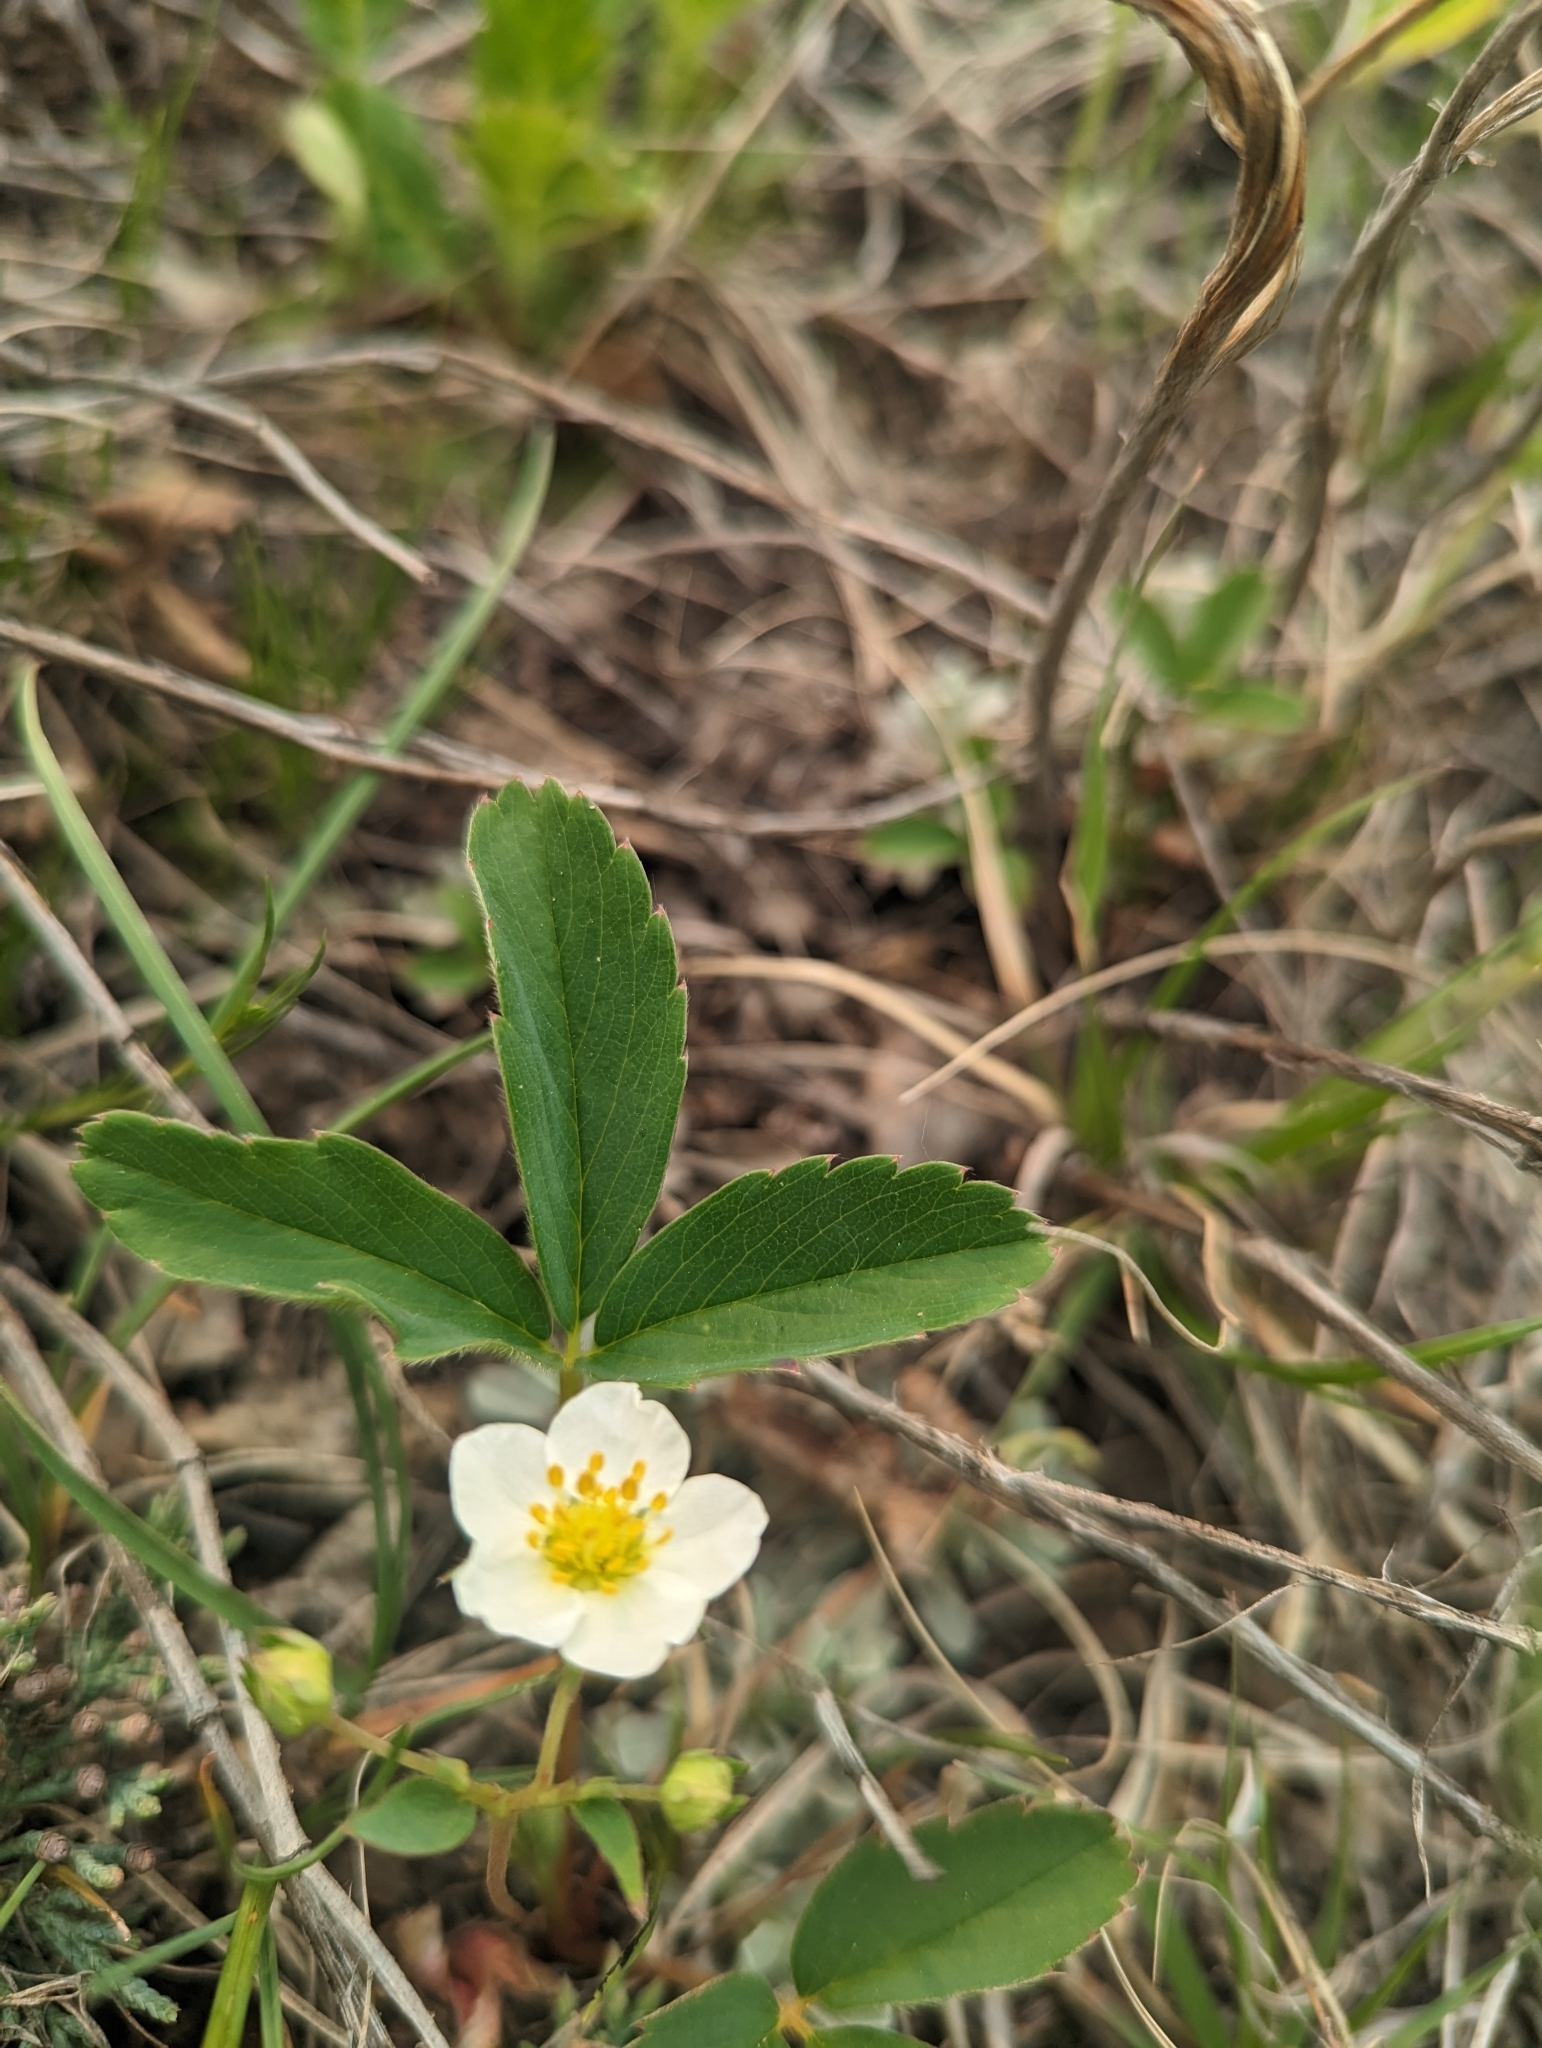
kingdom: Plantae
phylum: Tracheophyta
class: Magnoliopsida
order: Rosales
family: Rosaceae
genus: Fragaria
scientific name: Fragaria virginiana
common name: Thickleaved wild strawberry
